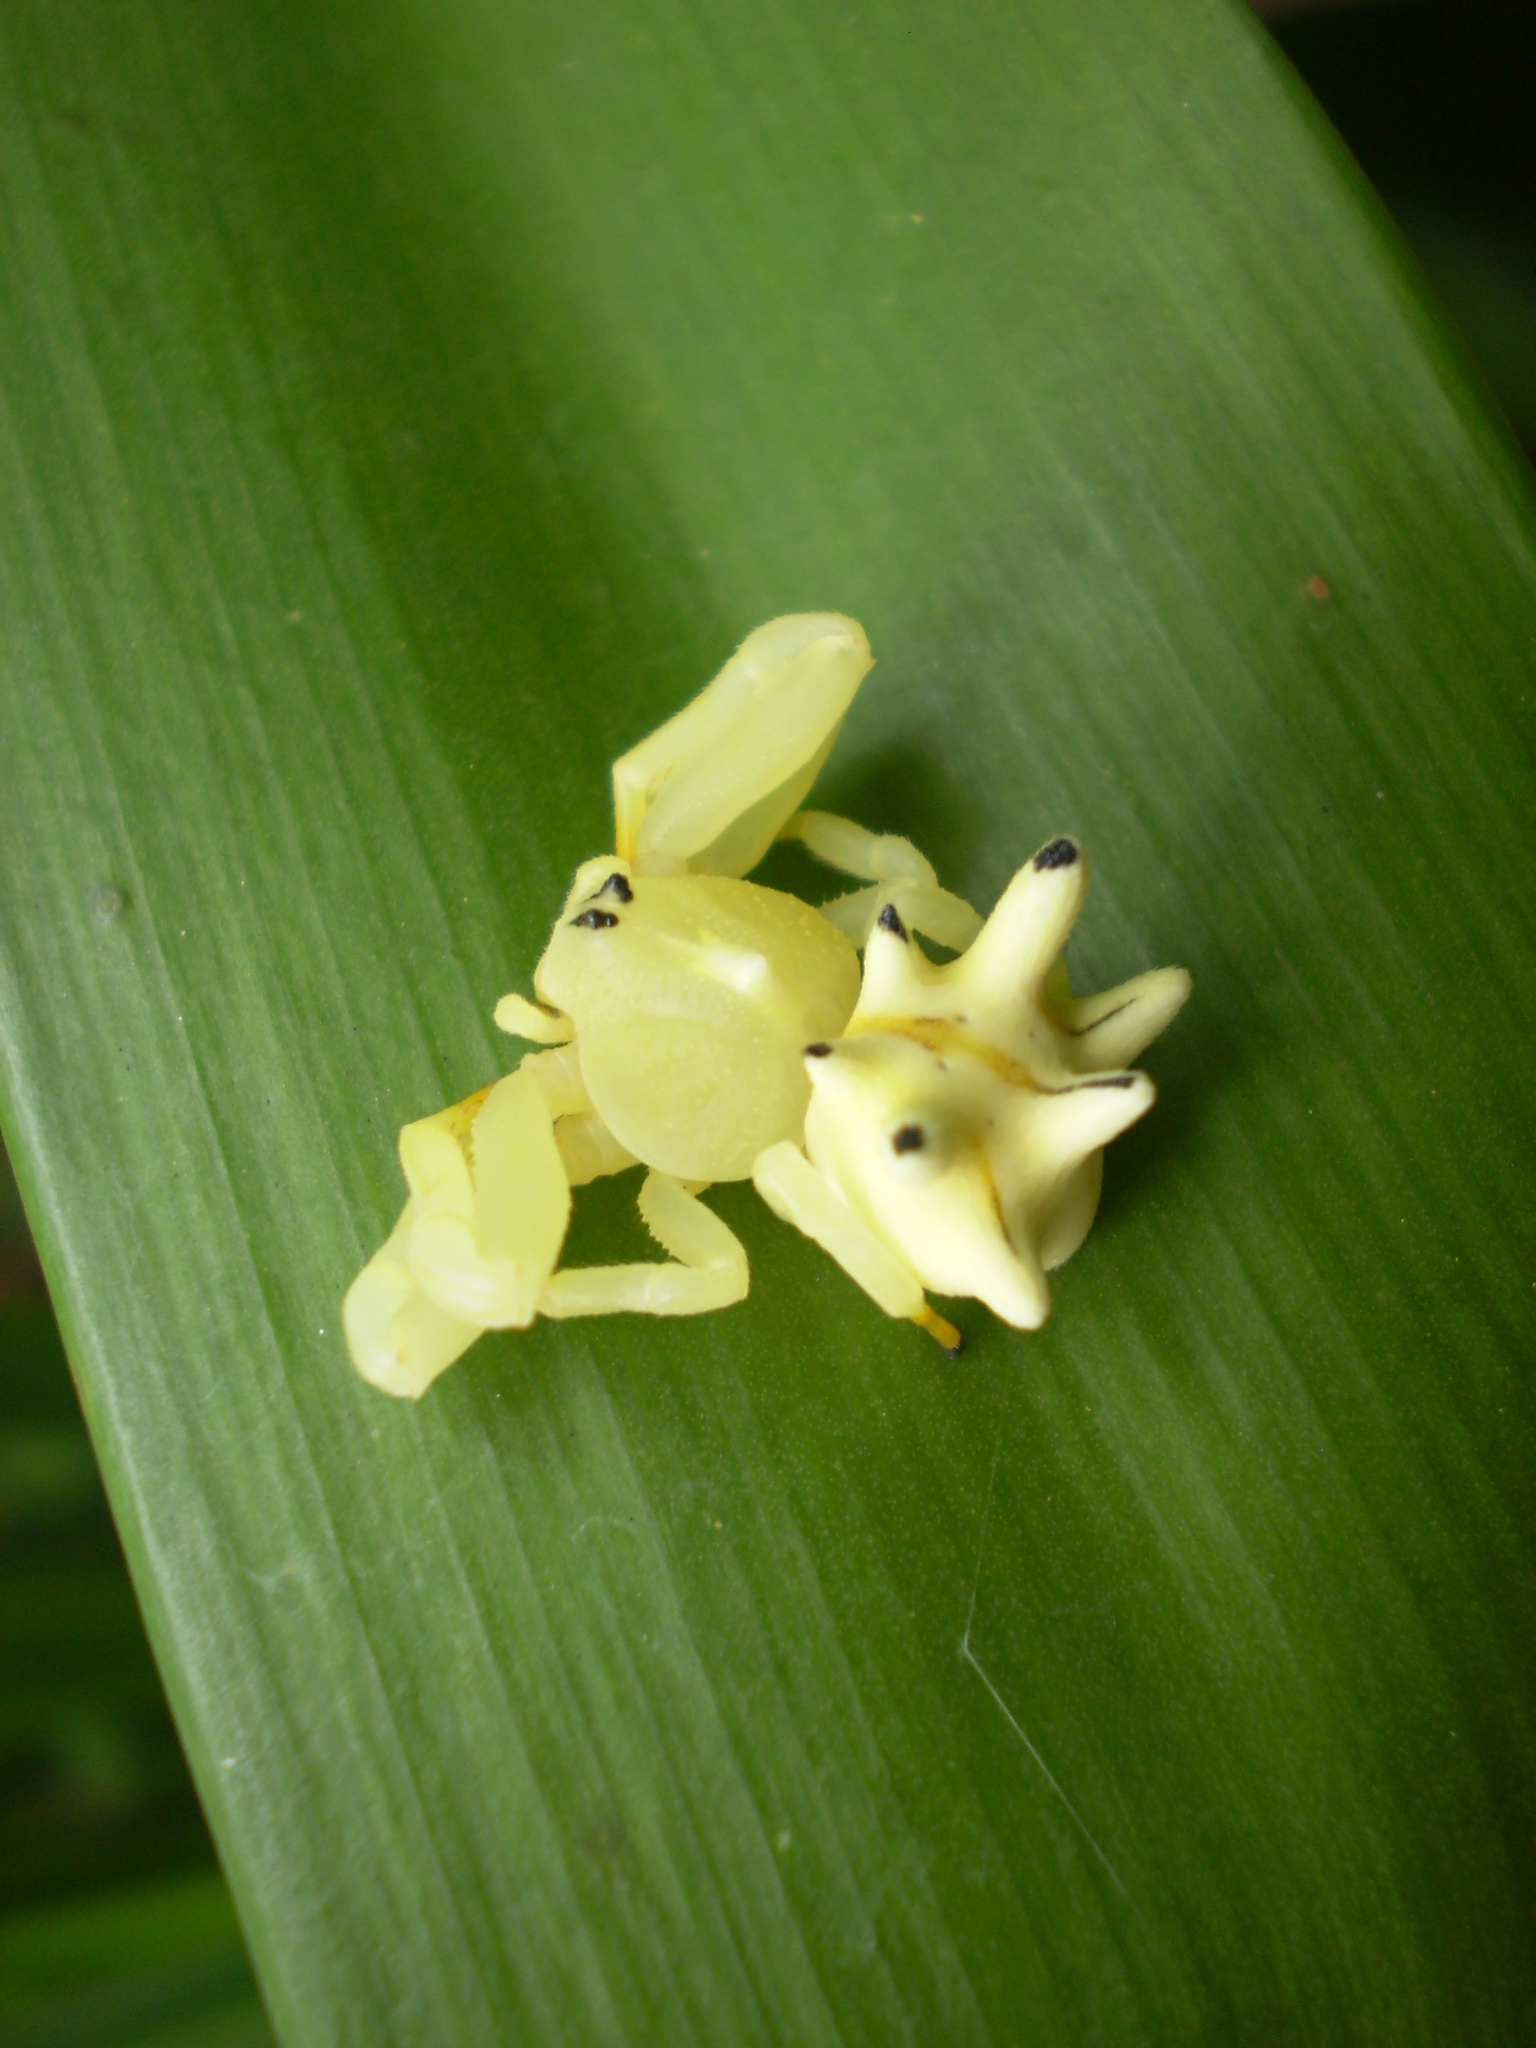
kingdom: Animalia
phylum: Arthropoda
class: Arachnida
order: Araneae
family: Thomisidae
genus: Epicadus
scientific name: Epicadus heterogaster
